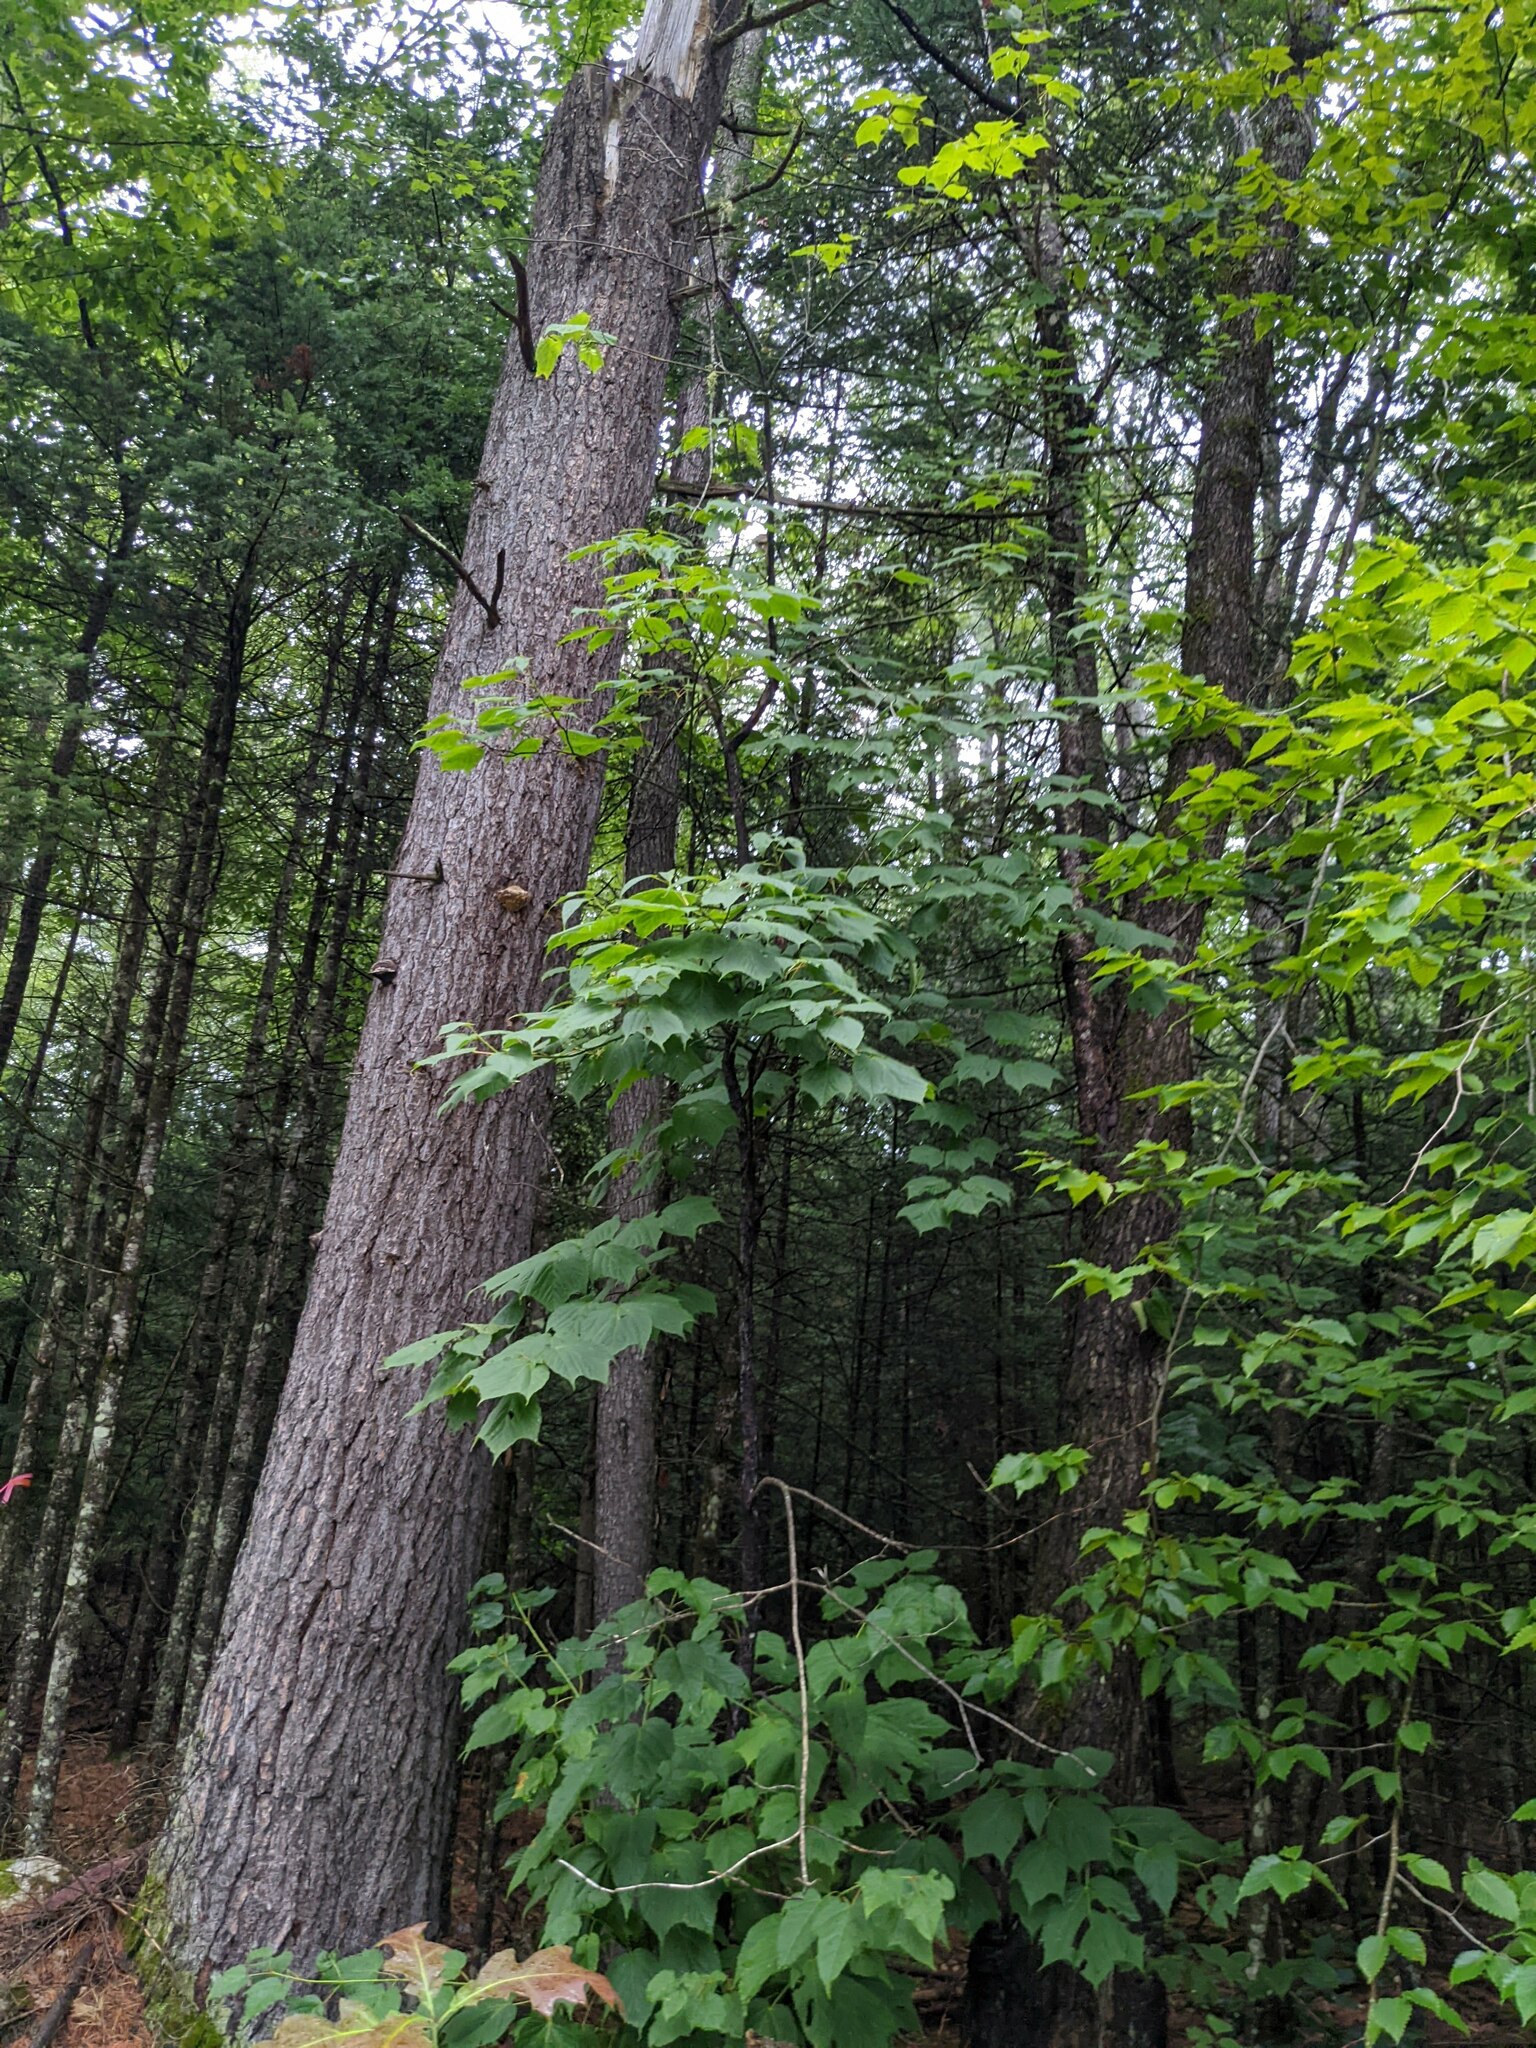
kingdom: Plantae
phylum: Tracheophyta
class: Magnoliopsida
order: Sapindales
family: Sapindaceae
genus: Acer
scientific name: Acer pensylvanicum
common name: Moosewood
